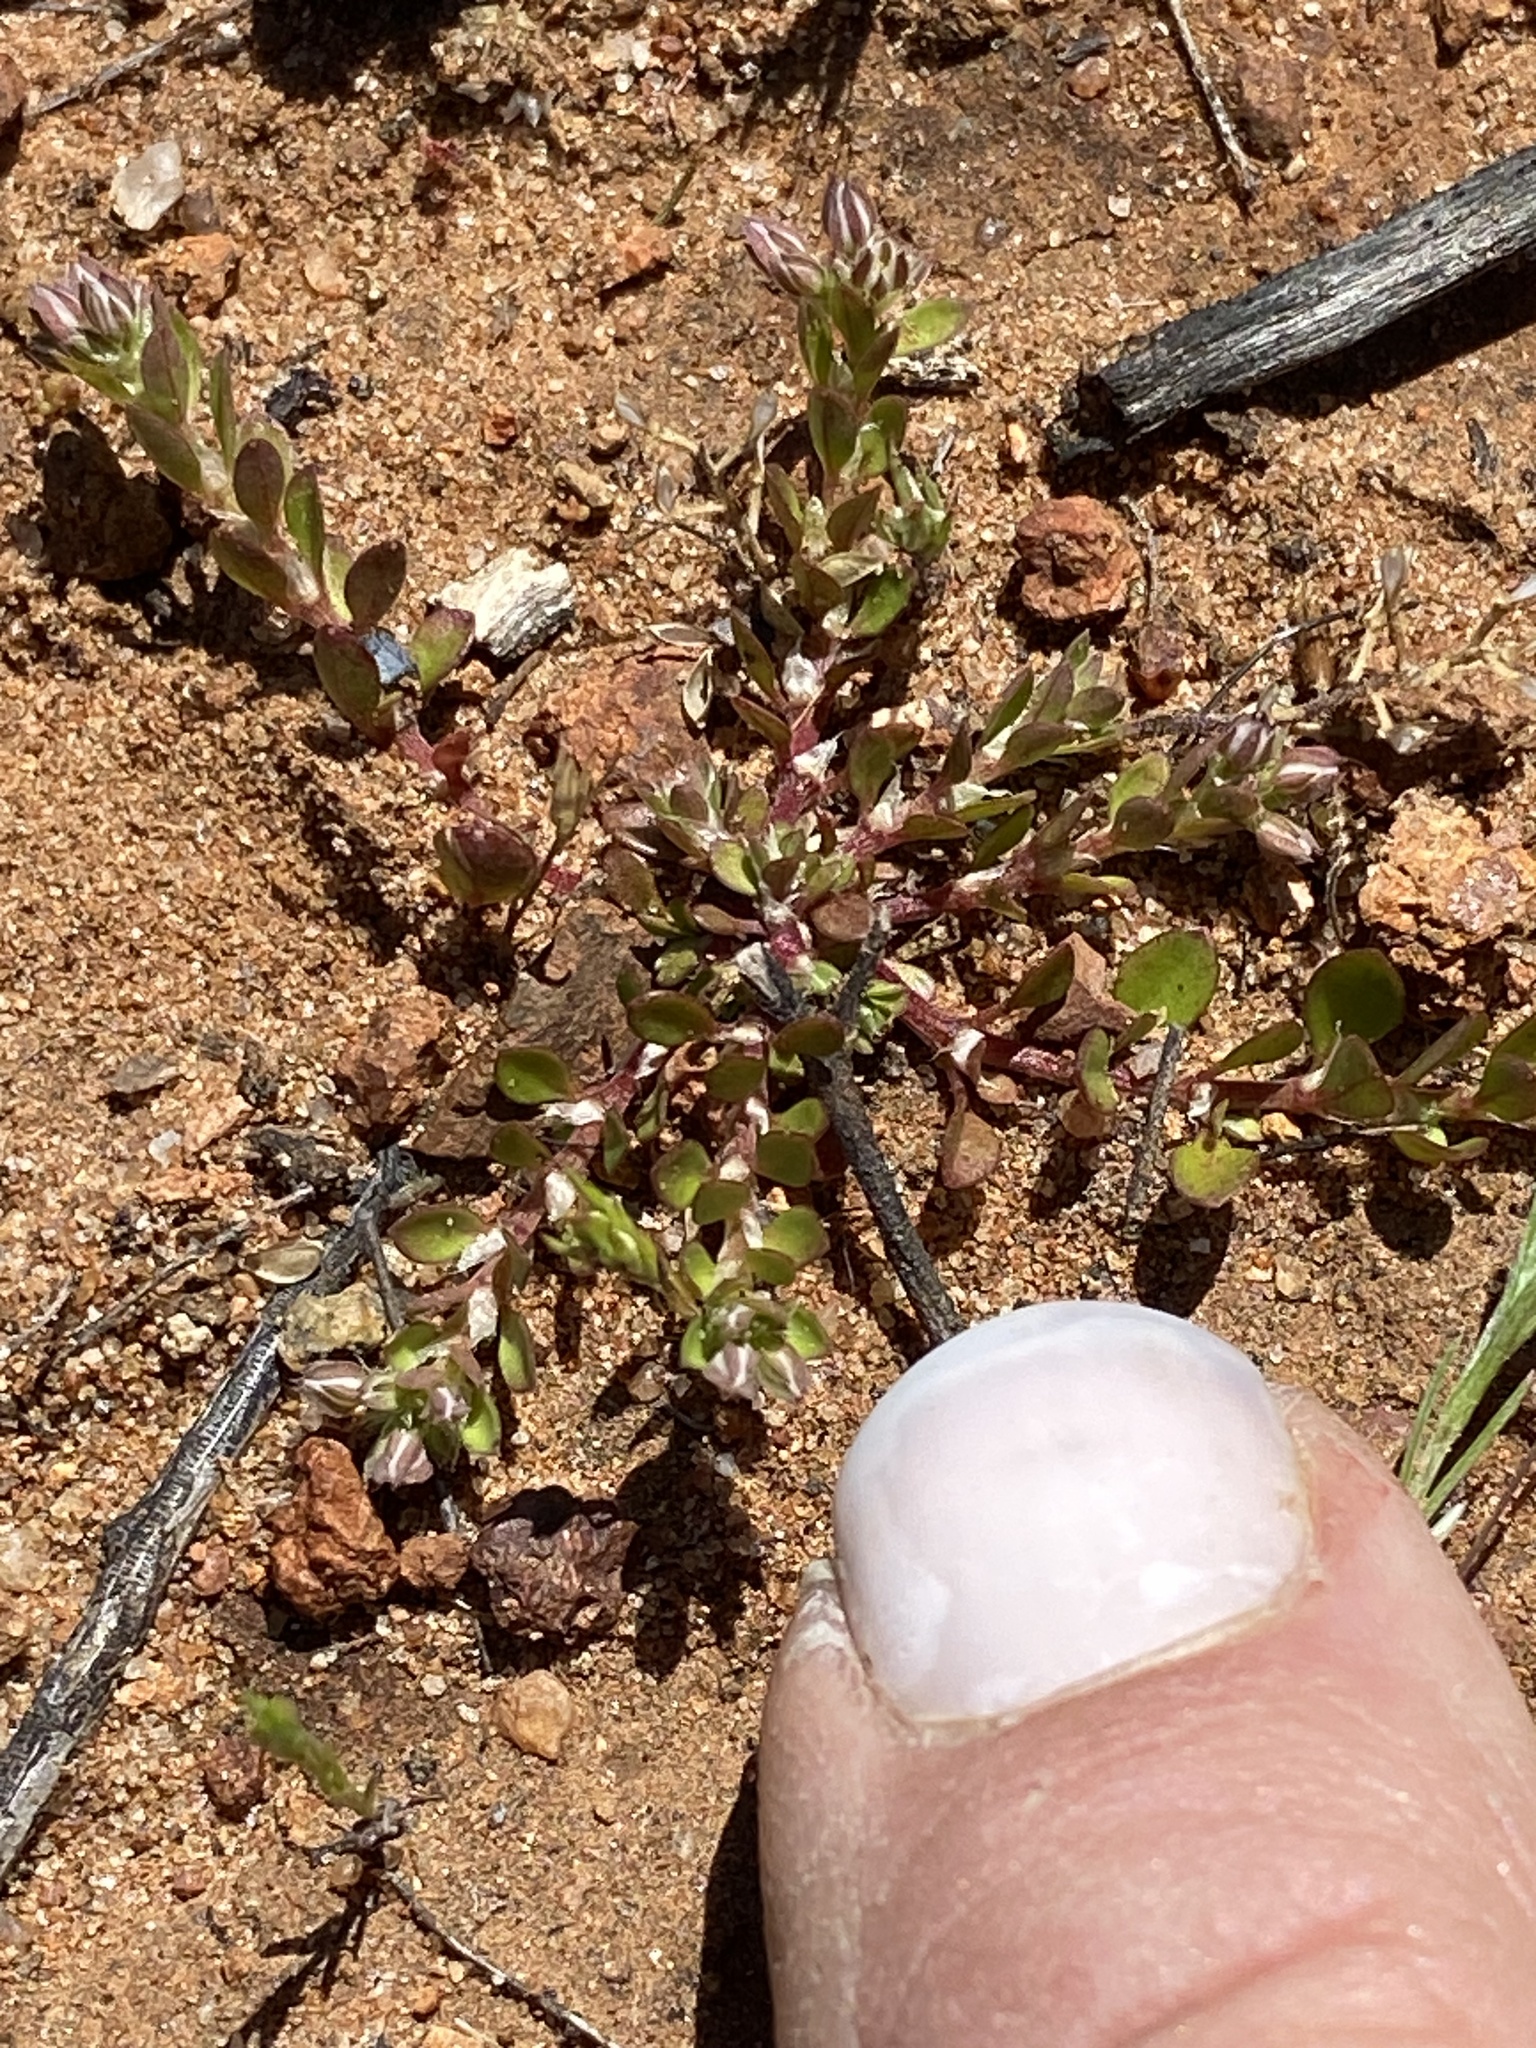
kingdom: Plantae
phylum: Tracheophyta
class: Magnoliopsida
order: Caryophyllales
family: Caryophyllaceae
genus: Polycarpon
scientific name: Polycarpon tetraphyllum
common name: Four-leaved all-seed
